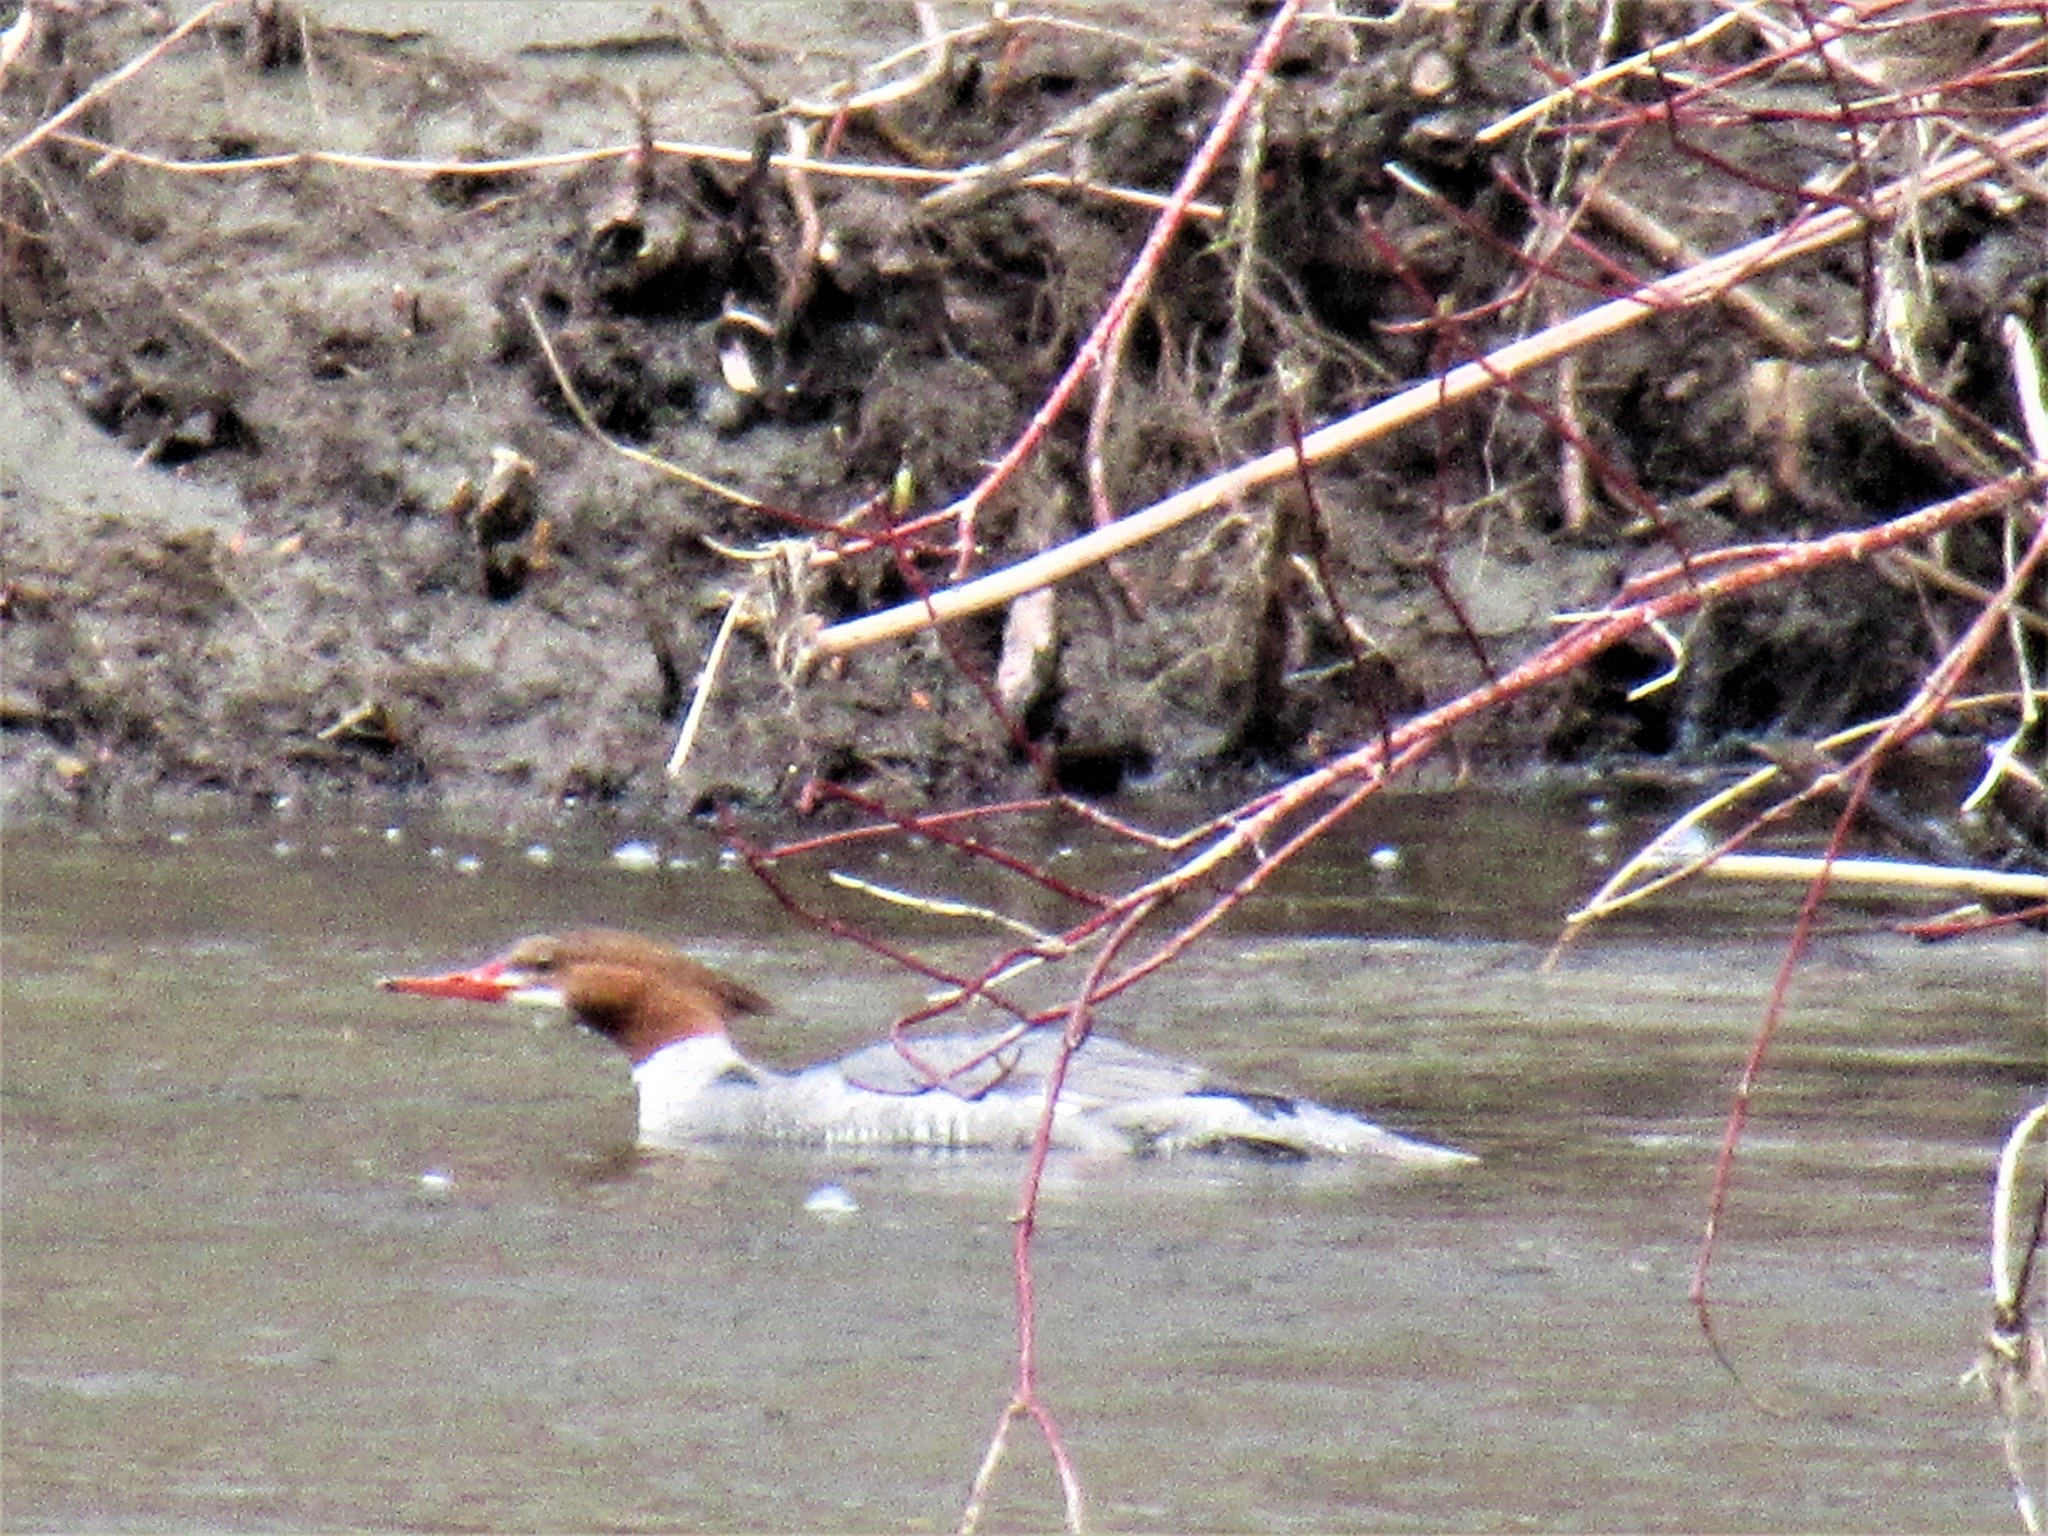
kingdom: Animalia
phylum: Chordata
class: Aves
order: Anseriformes
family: Anatidae
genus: Mergus
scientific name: Mergus merganser
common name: Common merganser
